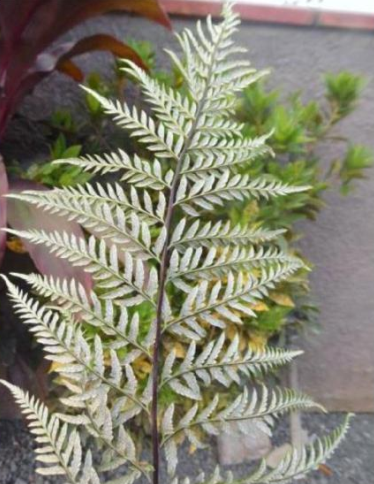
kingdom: Plantae
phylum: Tracheophyta
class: Polypodiopsida
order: Polypodiales
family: Pteridaceae
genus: Pityrogramma
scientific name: Pityrogramma calomelanos
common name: Dixie silverback fern
